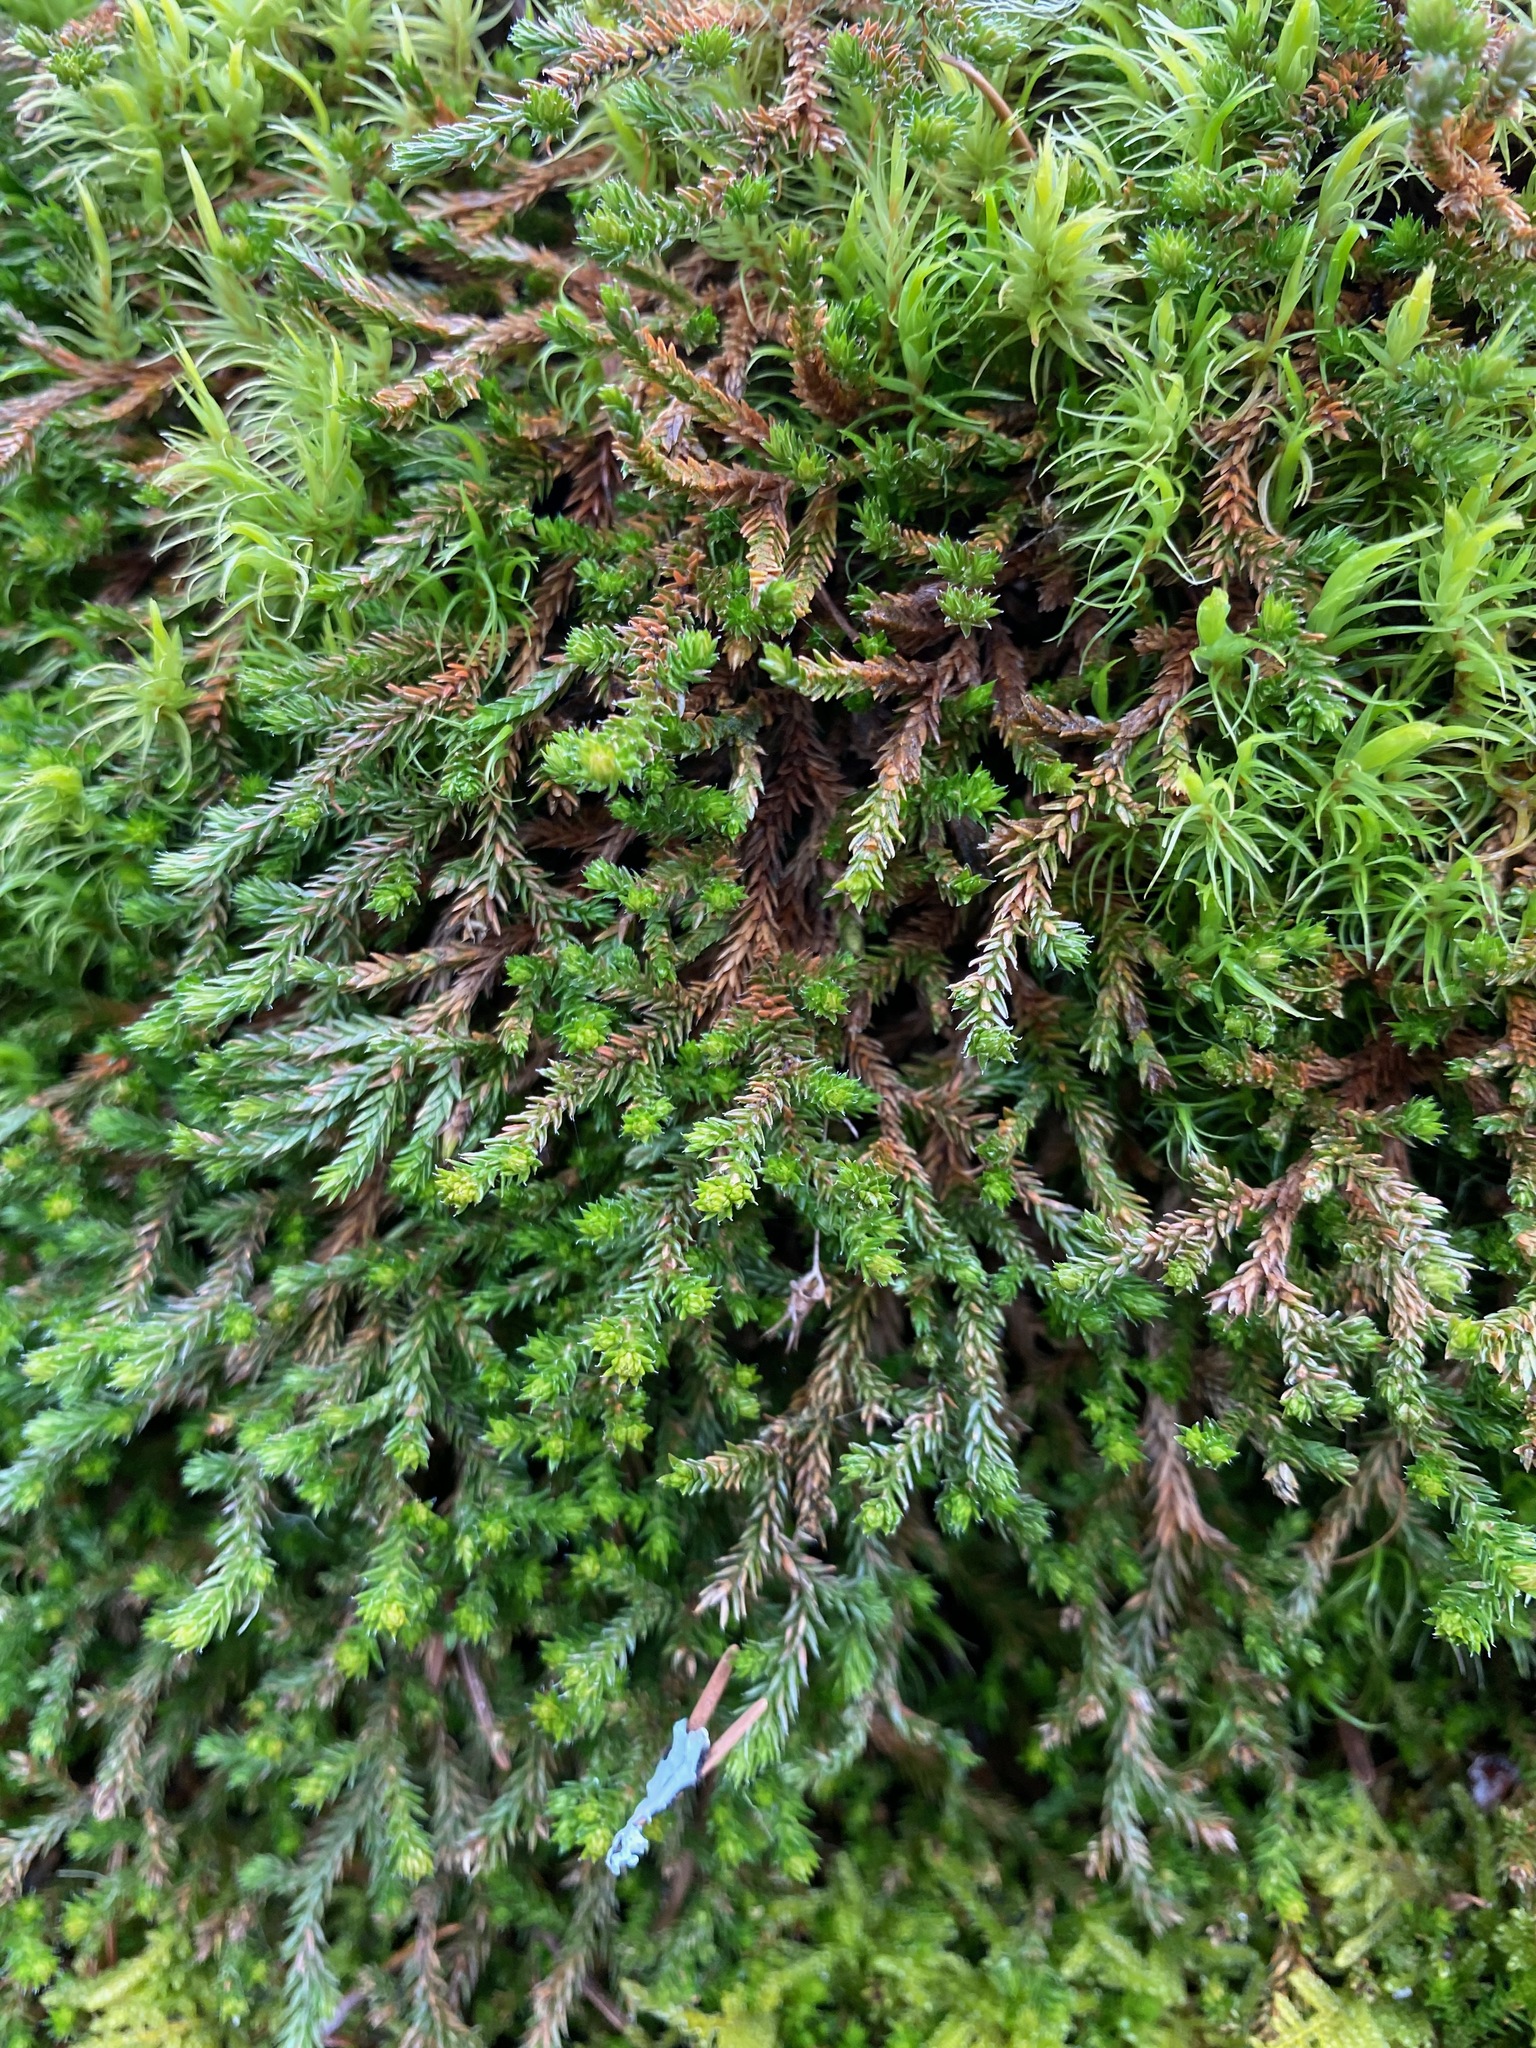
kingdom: Plantae
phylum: Tracheophyta
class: Lycopodiopsida
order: Selaginellales
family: Selaginellaceae
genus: Selaginella
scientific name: Selaginella wallacei
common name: Wallace's selaginella
